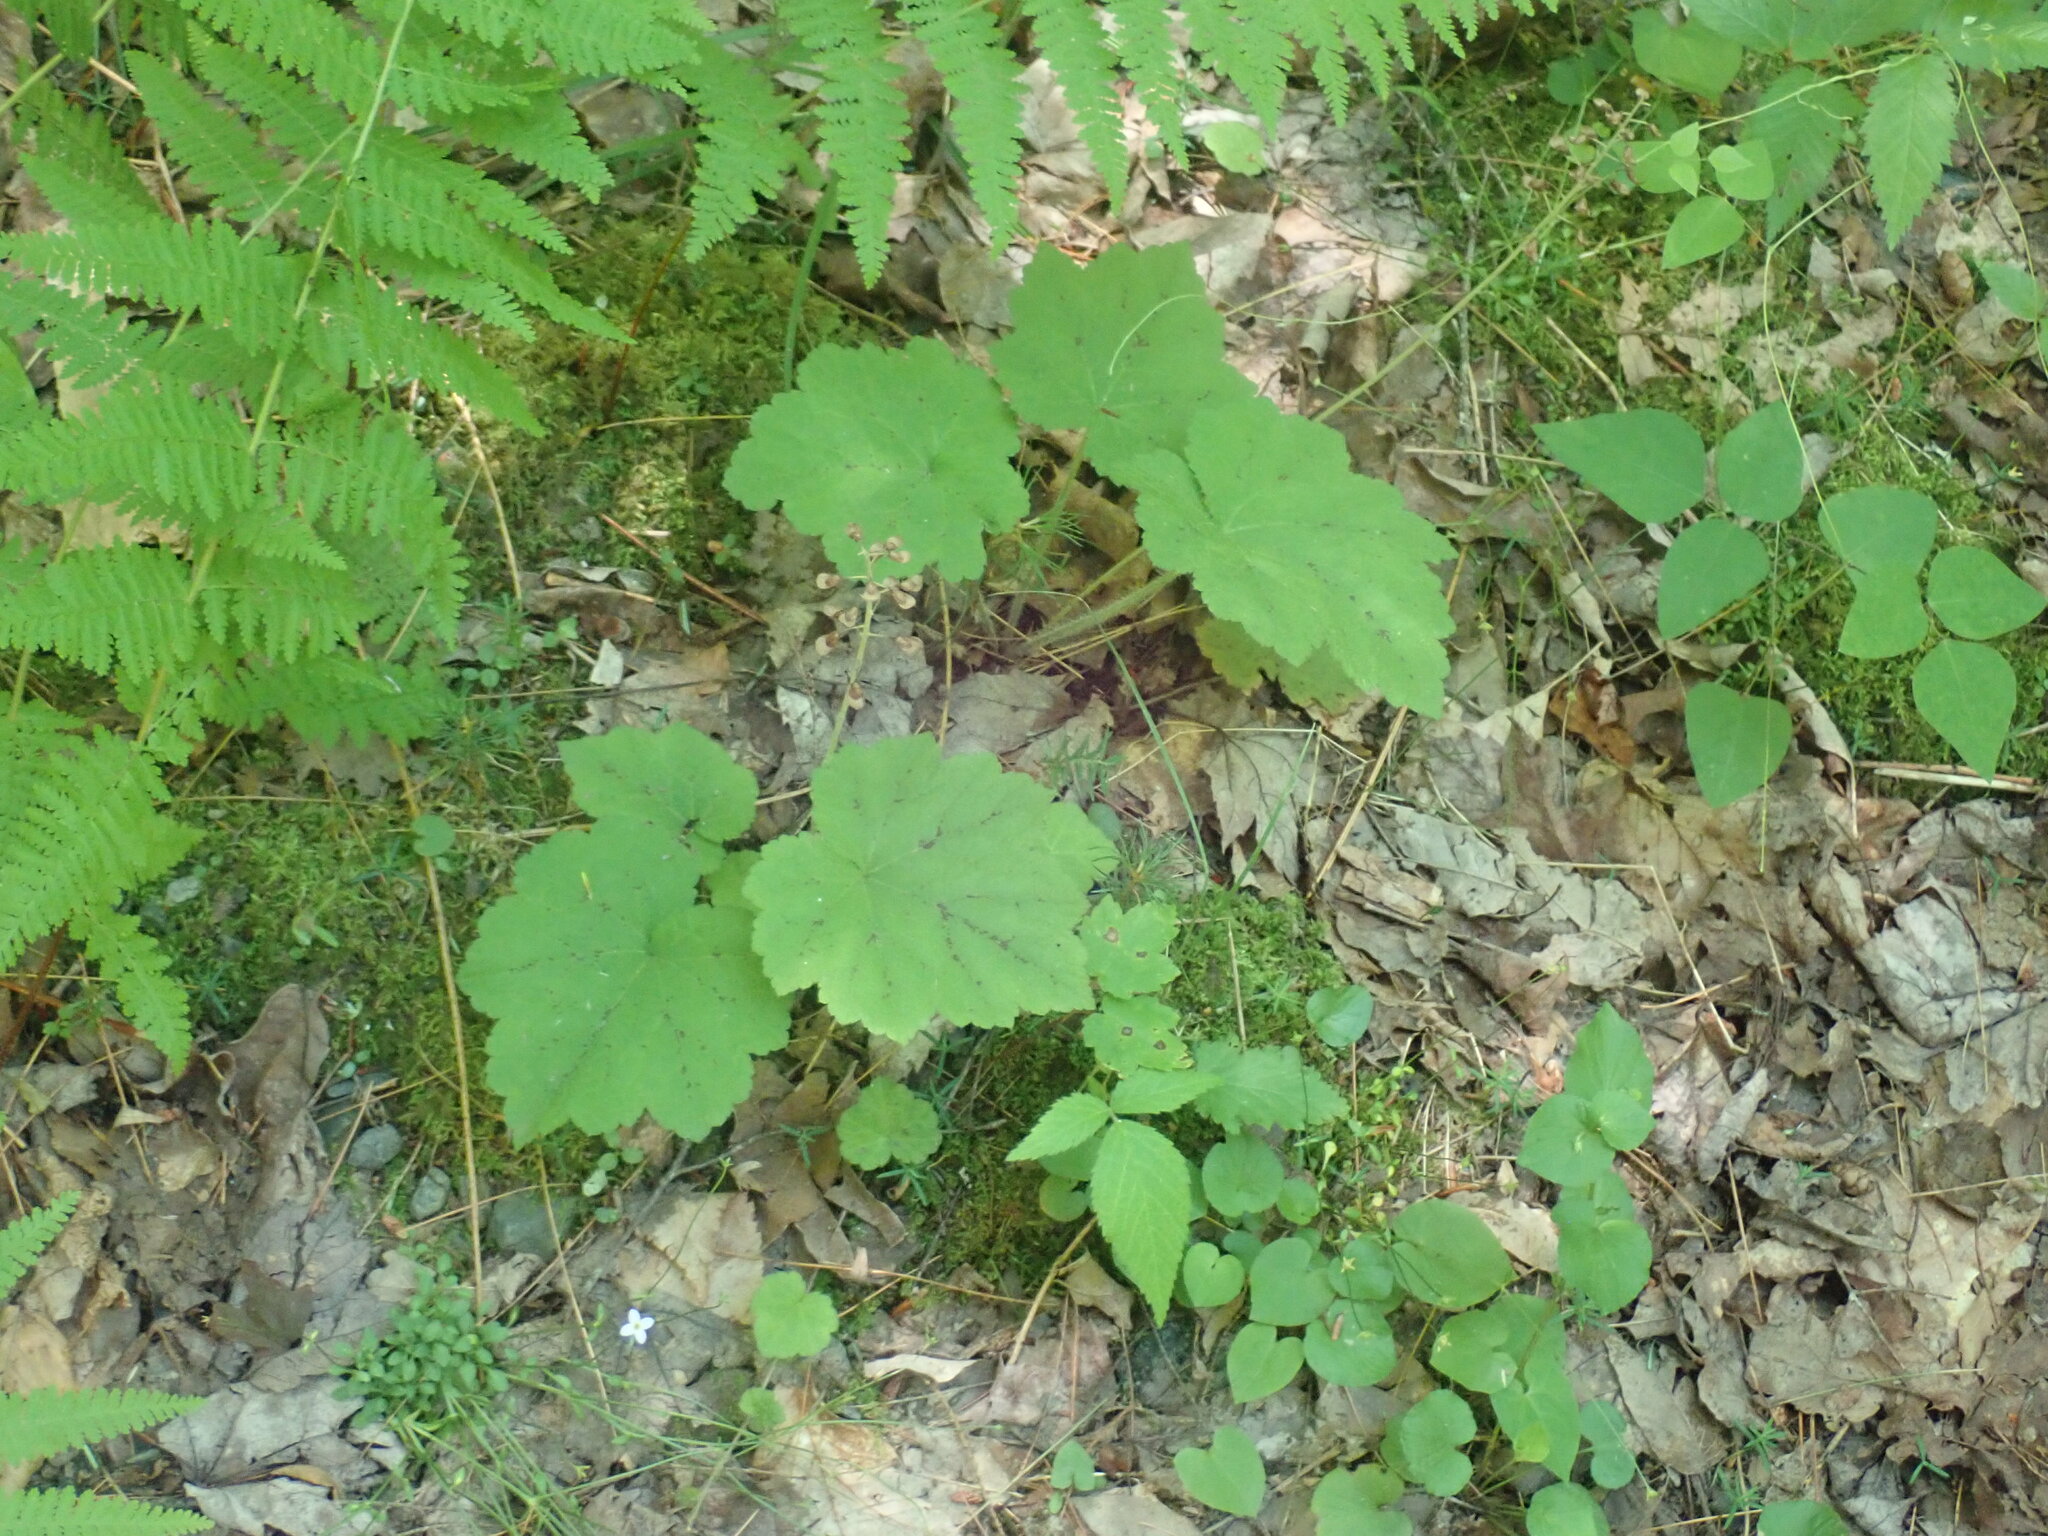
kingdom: Plantae
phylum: Tracheophyta
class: Magnoliopsida
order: Saxifragales
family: Saxifragaceae
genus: Tiarella
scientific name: Tiarella stolonifera
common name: Stoloniferous foamflower
